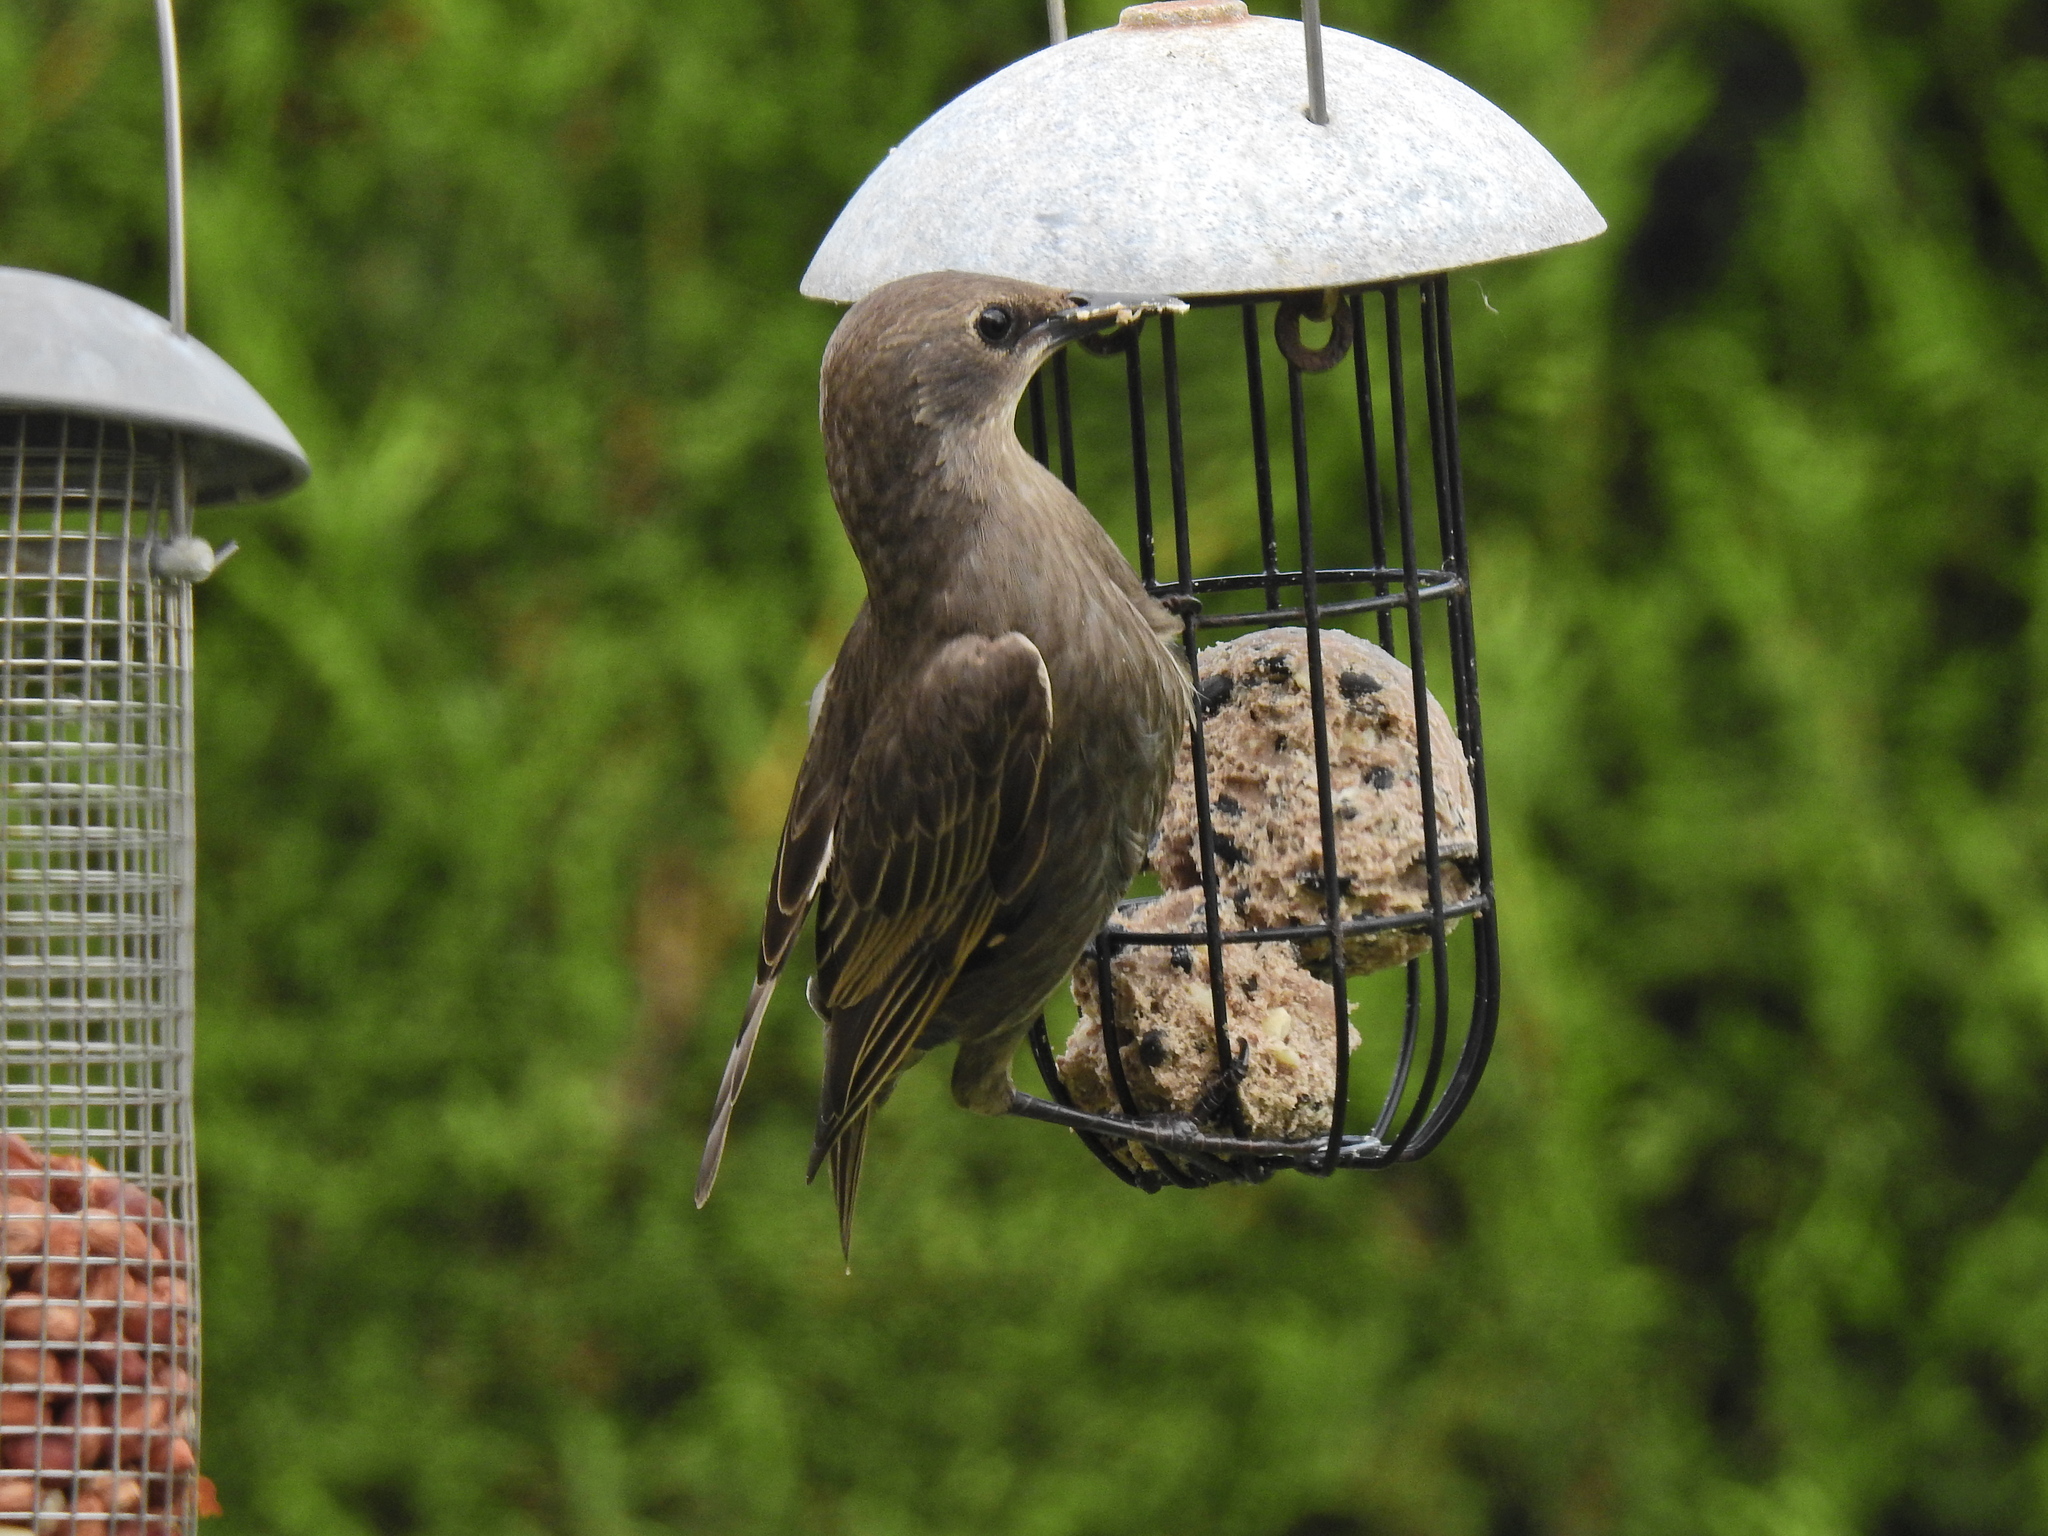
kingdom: Animalia
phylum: Chordata
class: Aves
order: Passeriformes
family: Sturnidae
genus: Sturnus
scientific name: Sturnus vulgaris
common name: Common starling
